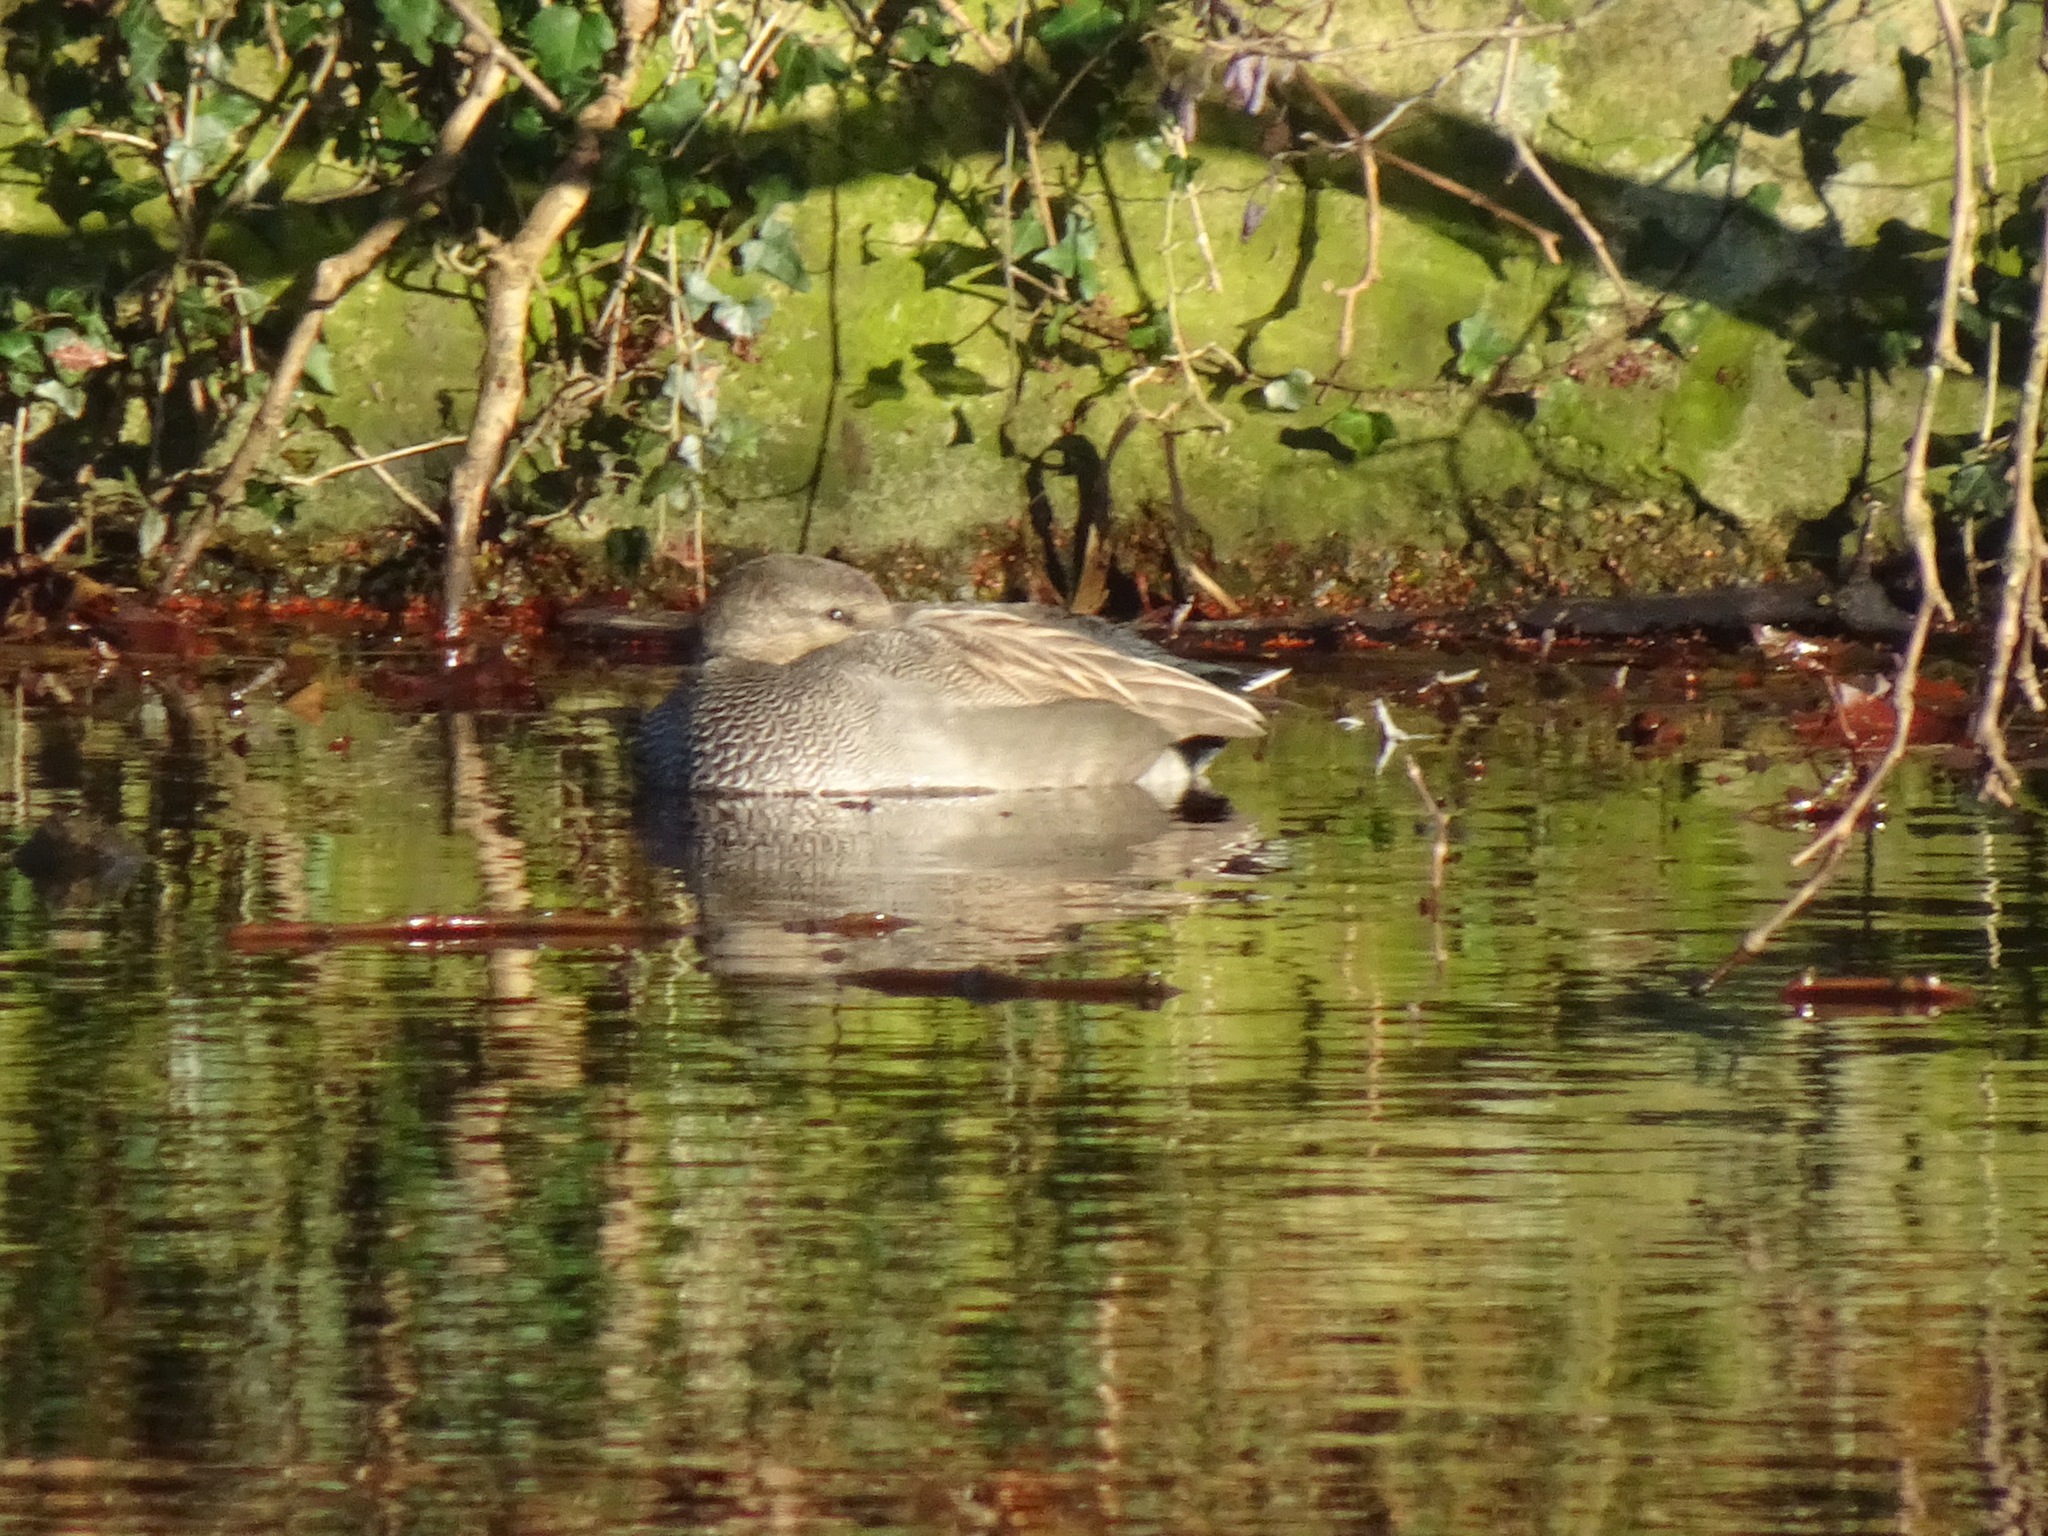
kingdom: Animalia
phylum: Chordata
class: Aves
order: Anseriformes
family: Anatidae
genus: Mareca
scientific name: Mareca strepera
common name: Gadwall
